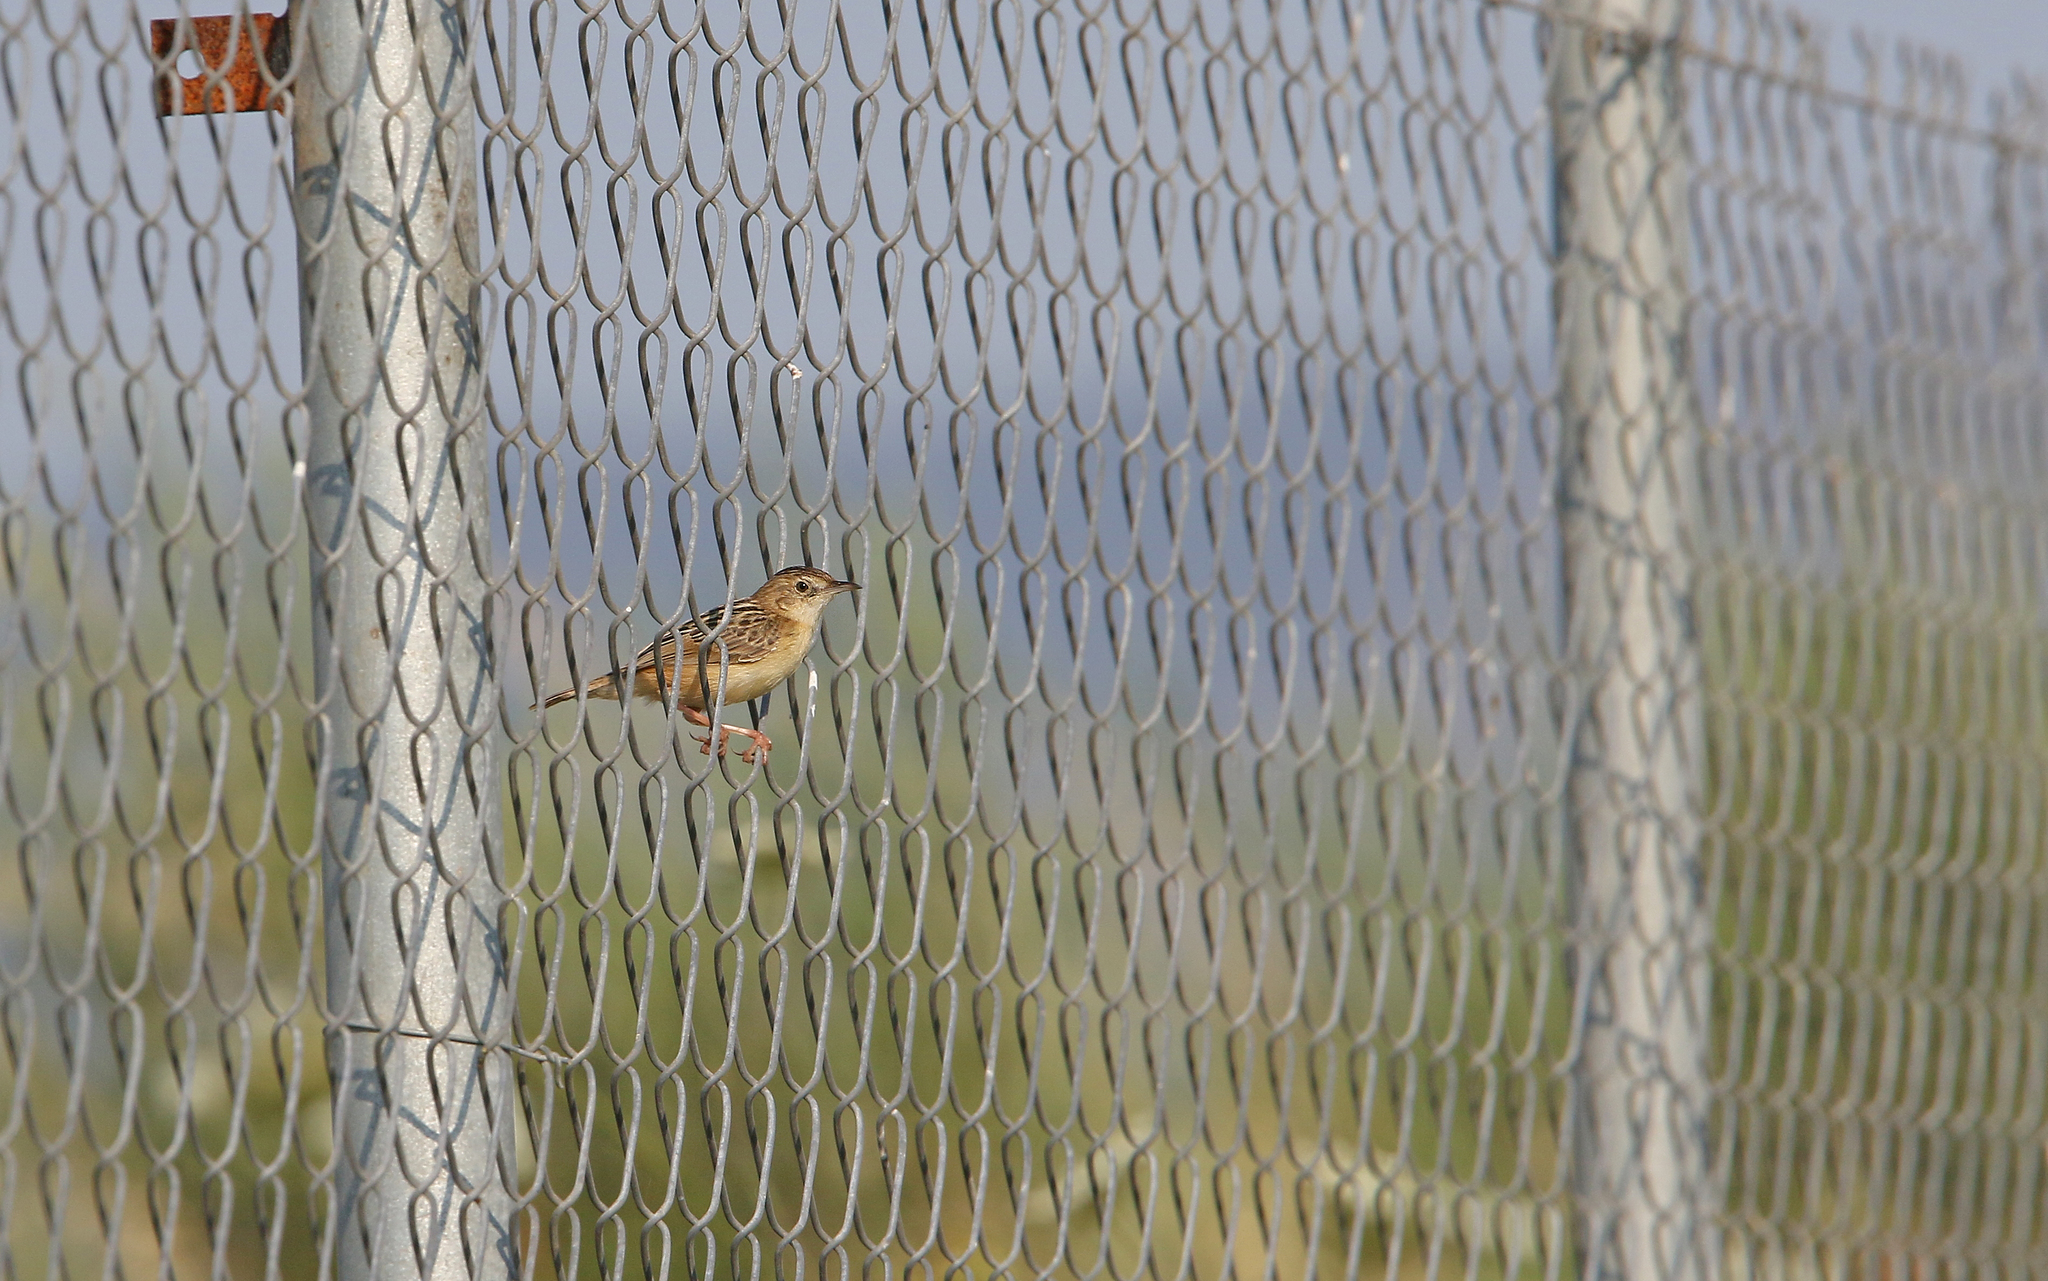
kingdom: Animalia
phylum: Chordata
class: Aves
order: Passeriformes
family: Cisticolidae
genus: Cisticola
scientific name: Cisticola juncidis
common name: Zitting cisticola
